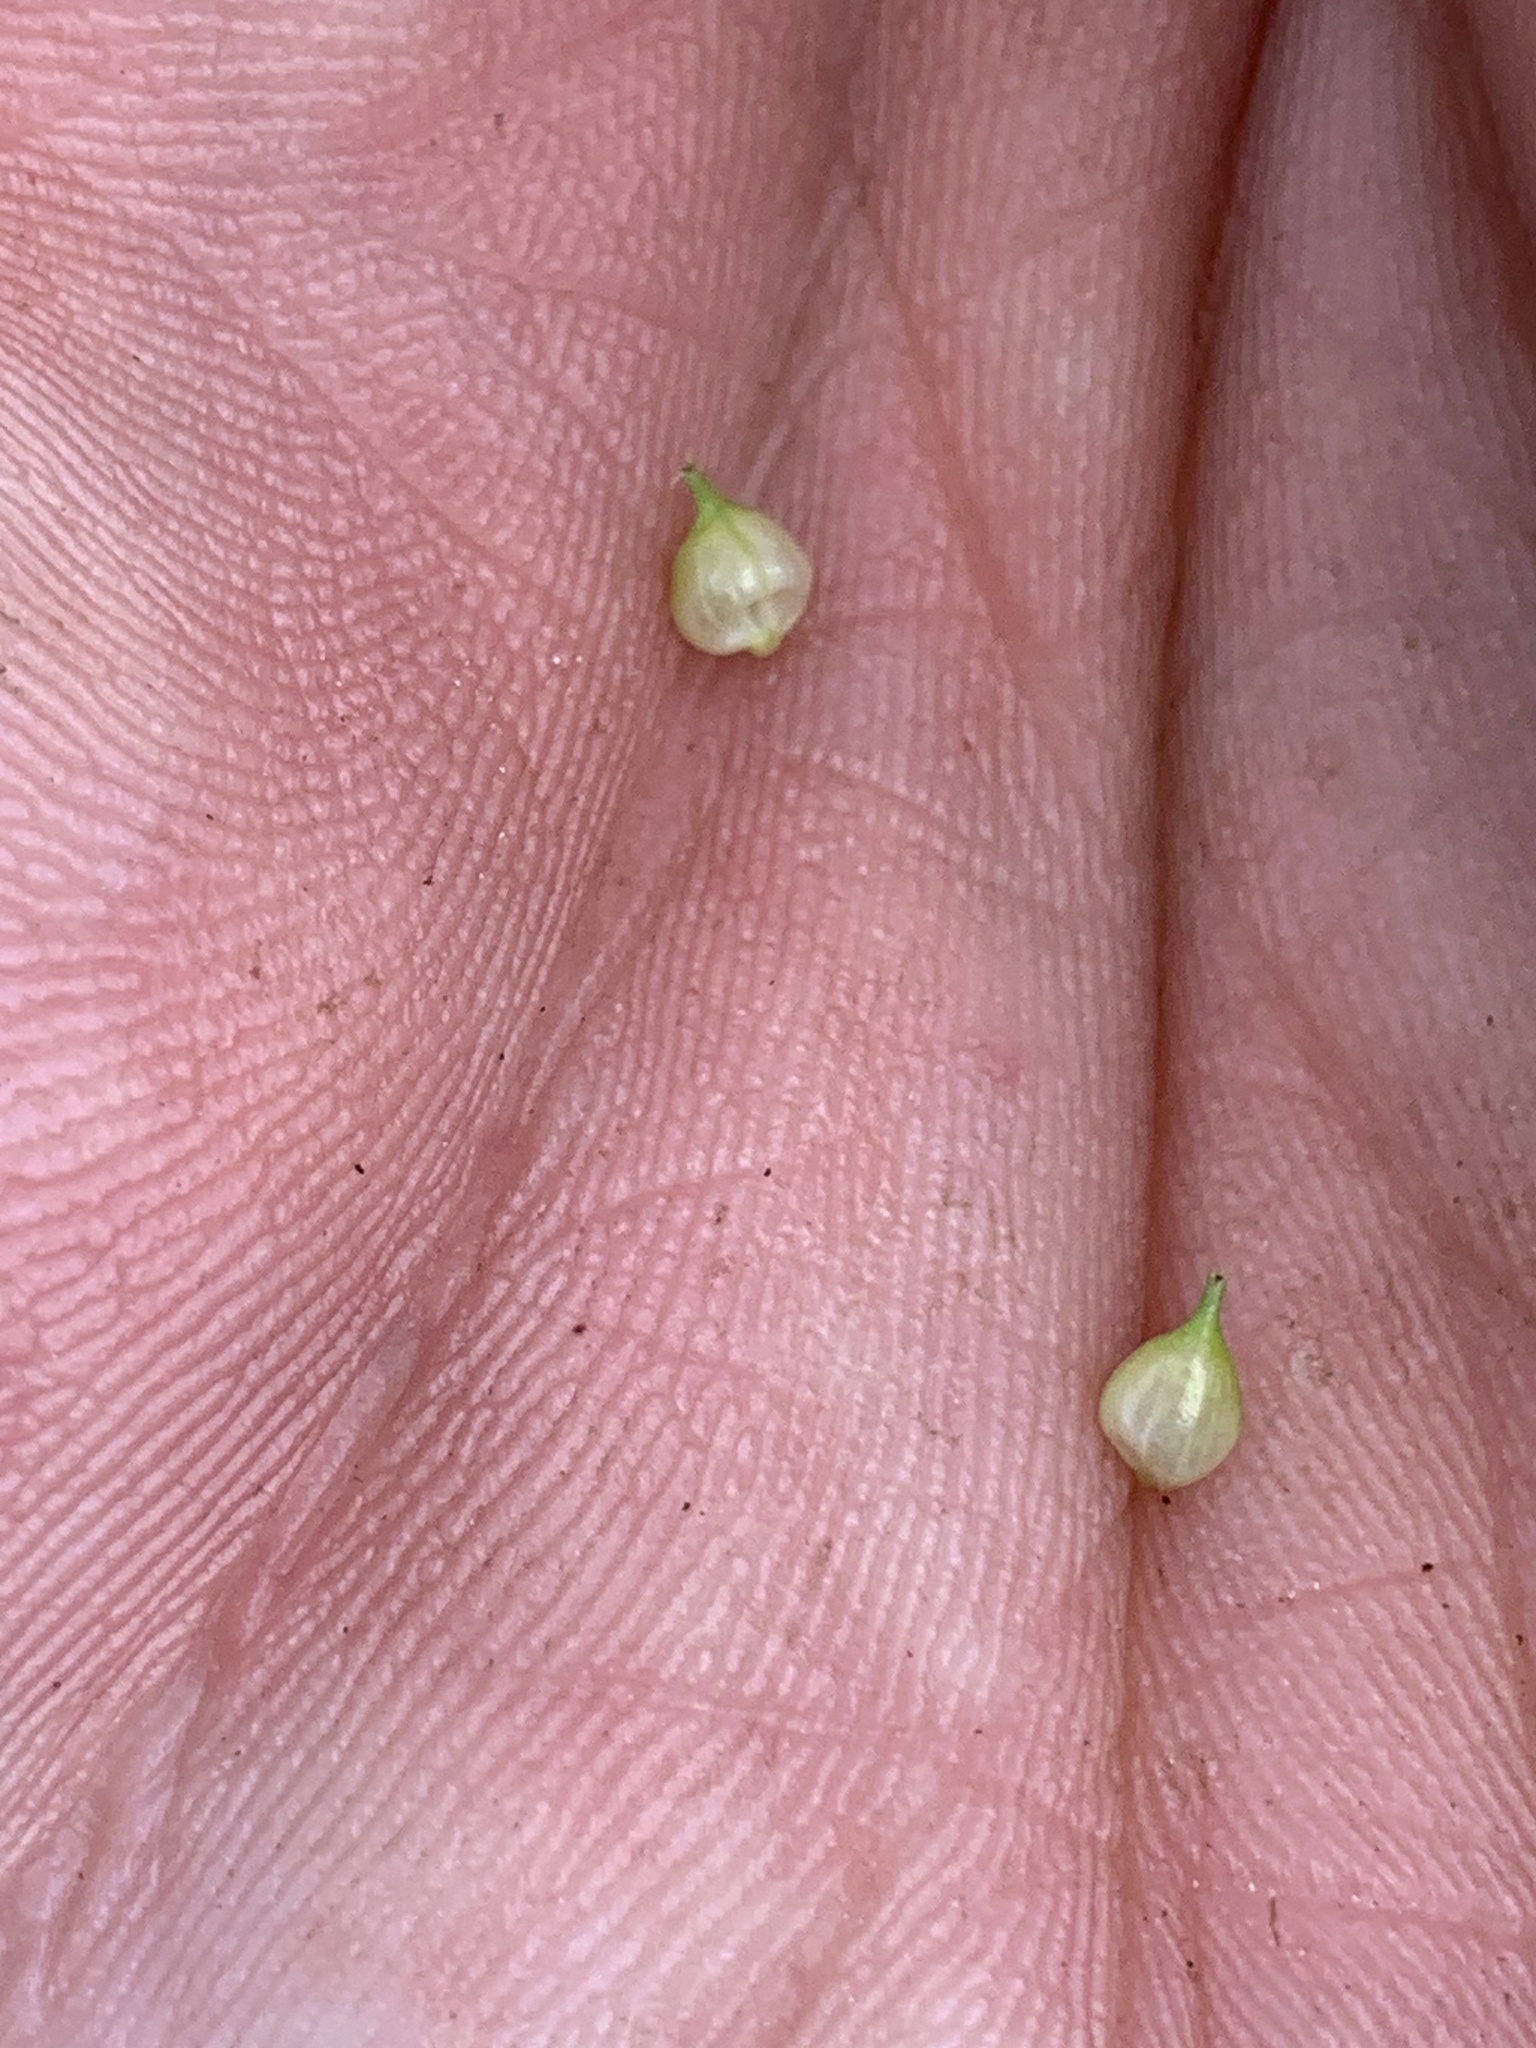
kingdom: Plantae
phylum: Tracheophyta
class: Liliopsida
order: Poales
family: Cyperaceae
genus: Carex
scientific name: Carex utriculata
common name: Beaked sedge
